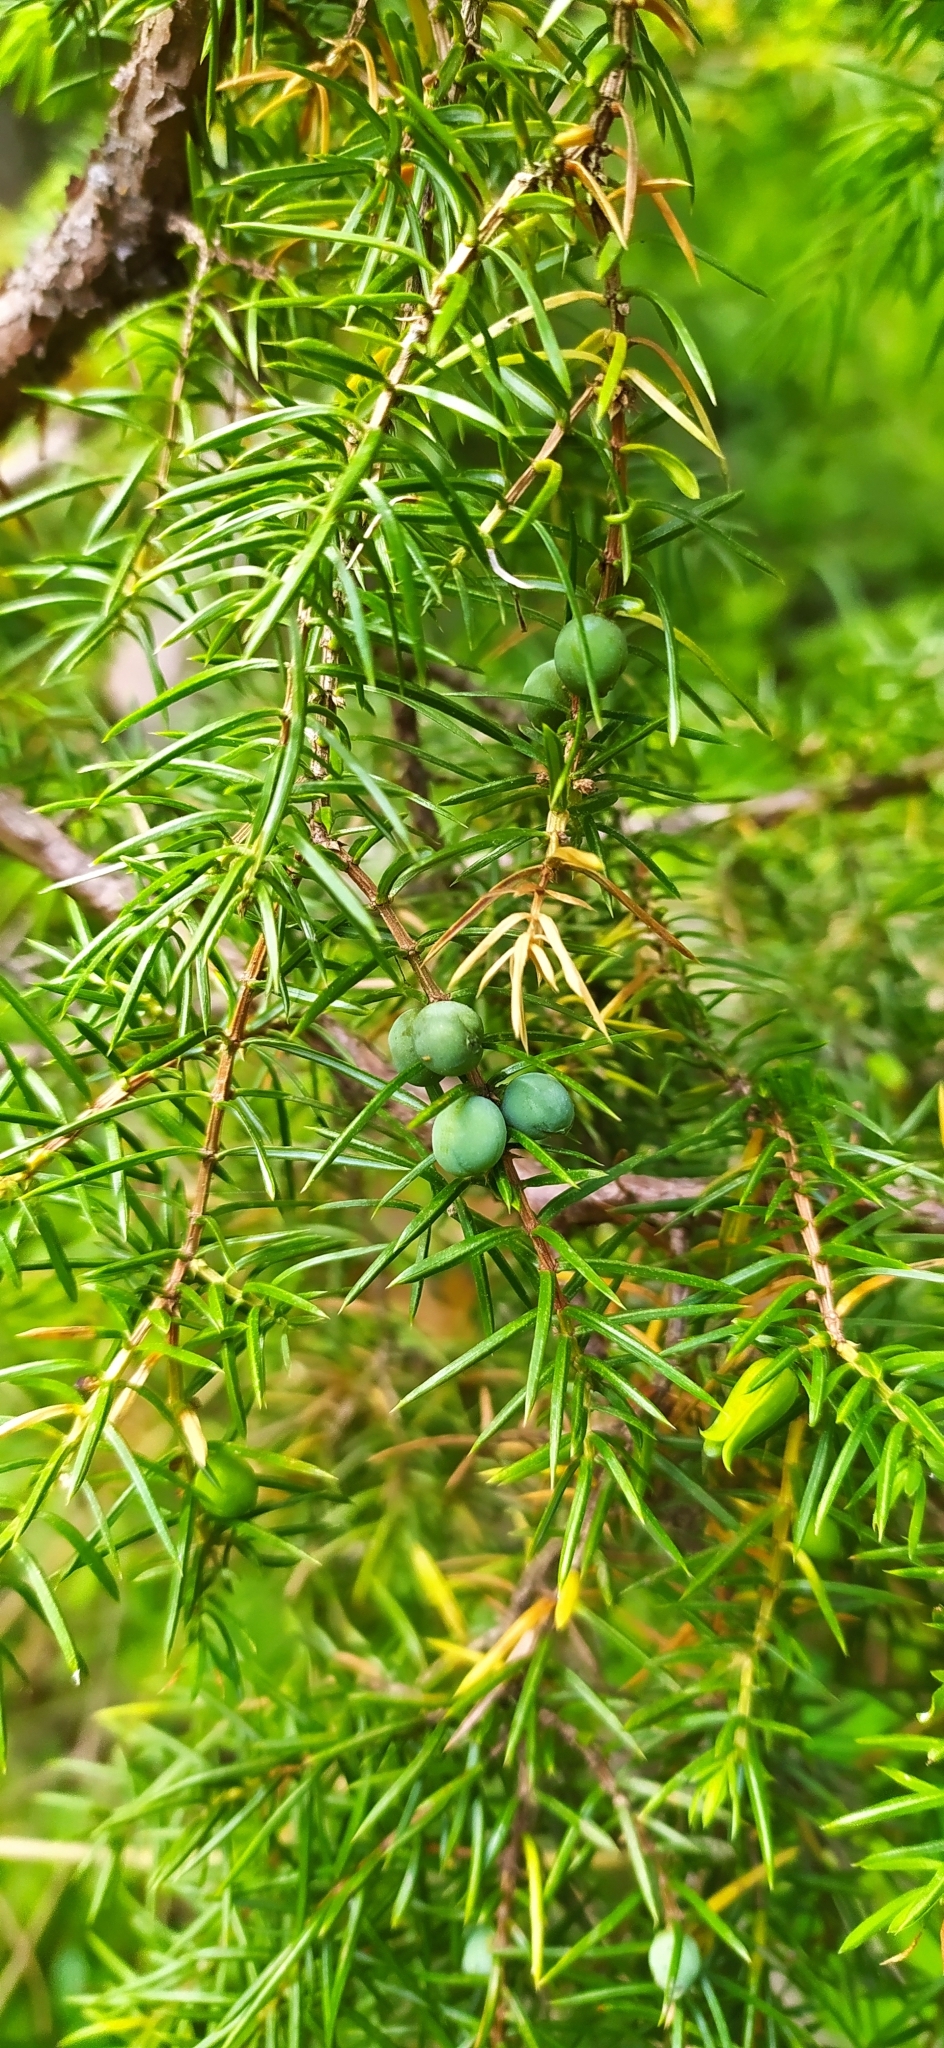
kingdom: Plantae
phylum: Tracheophyta
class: Pinopsida
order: Pinales
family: Cupressaceae
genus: Juniperus
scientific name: Juniperus communis
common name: Common juniper
